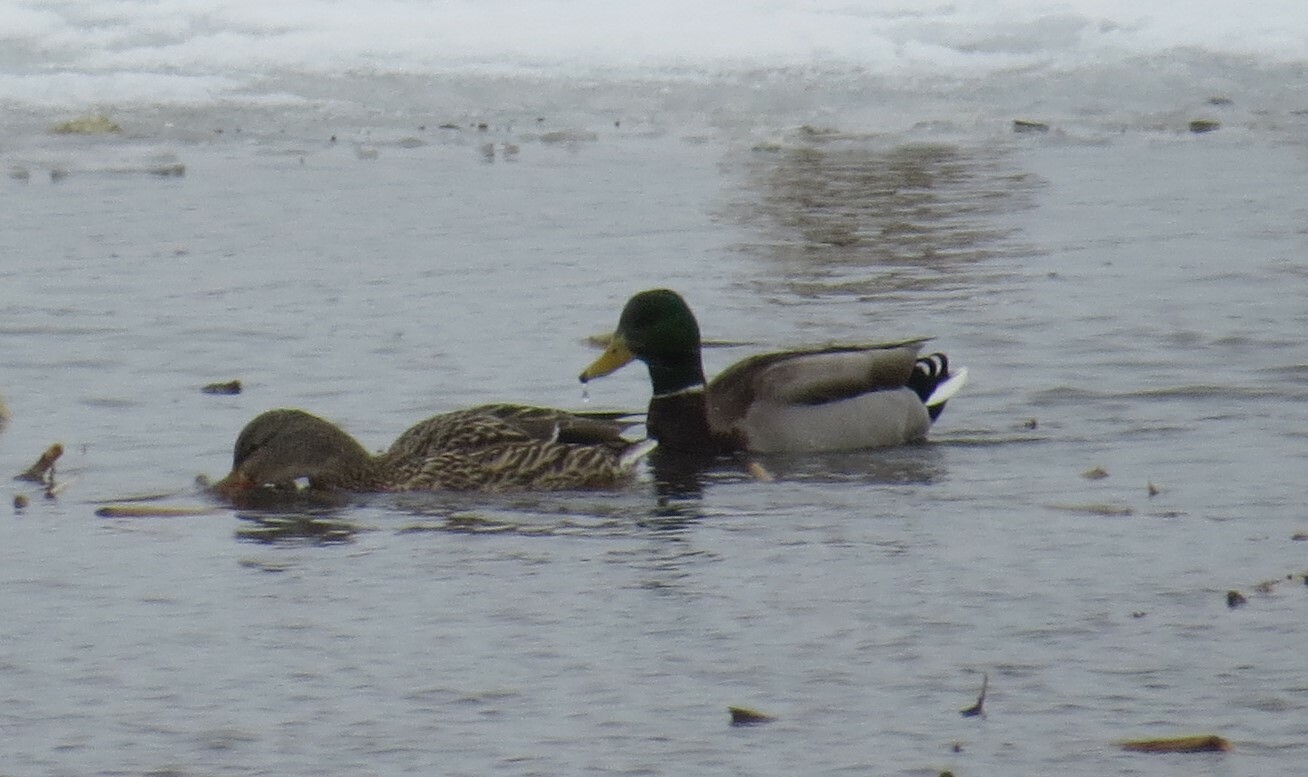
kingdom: Animalia
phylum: Chordata
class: Aves
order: Anseriformes
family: Anatidae
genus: Anas
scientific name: Anas platyrhynchos
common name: Mallard
